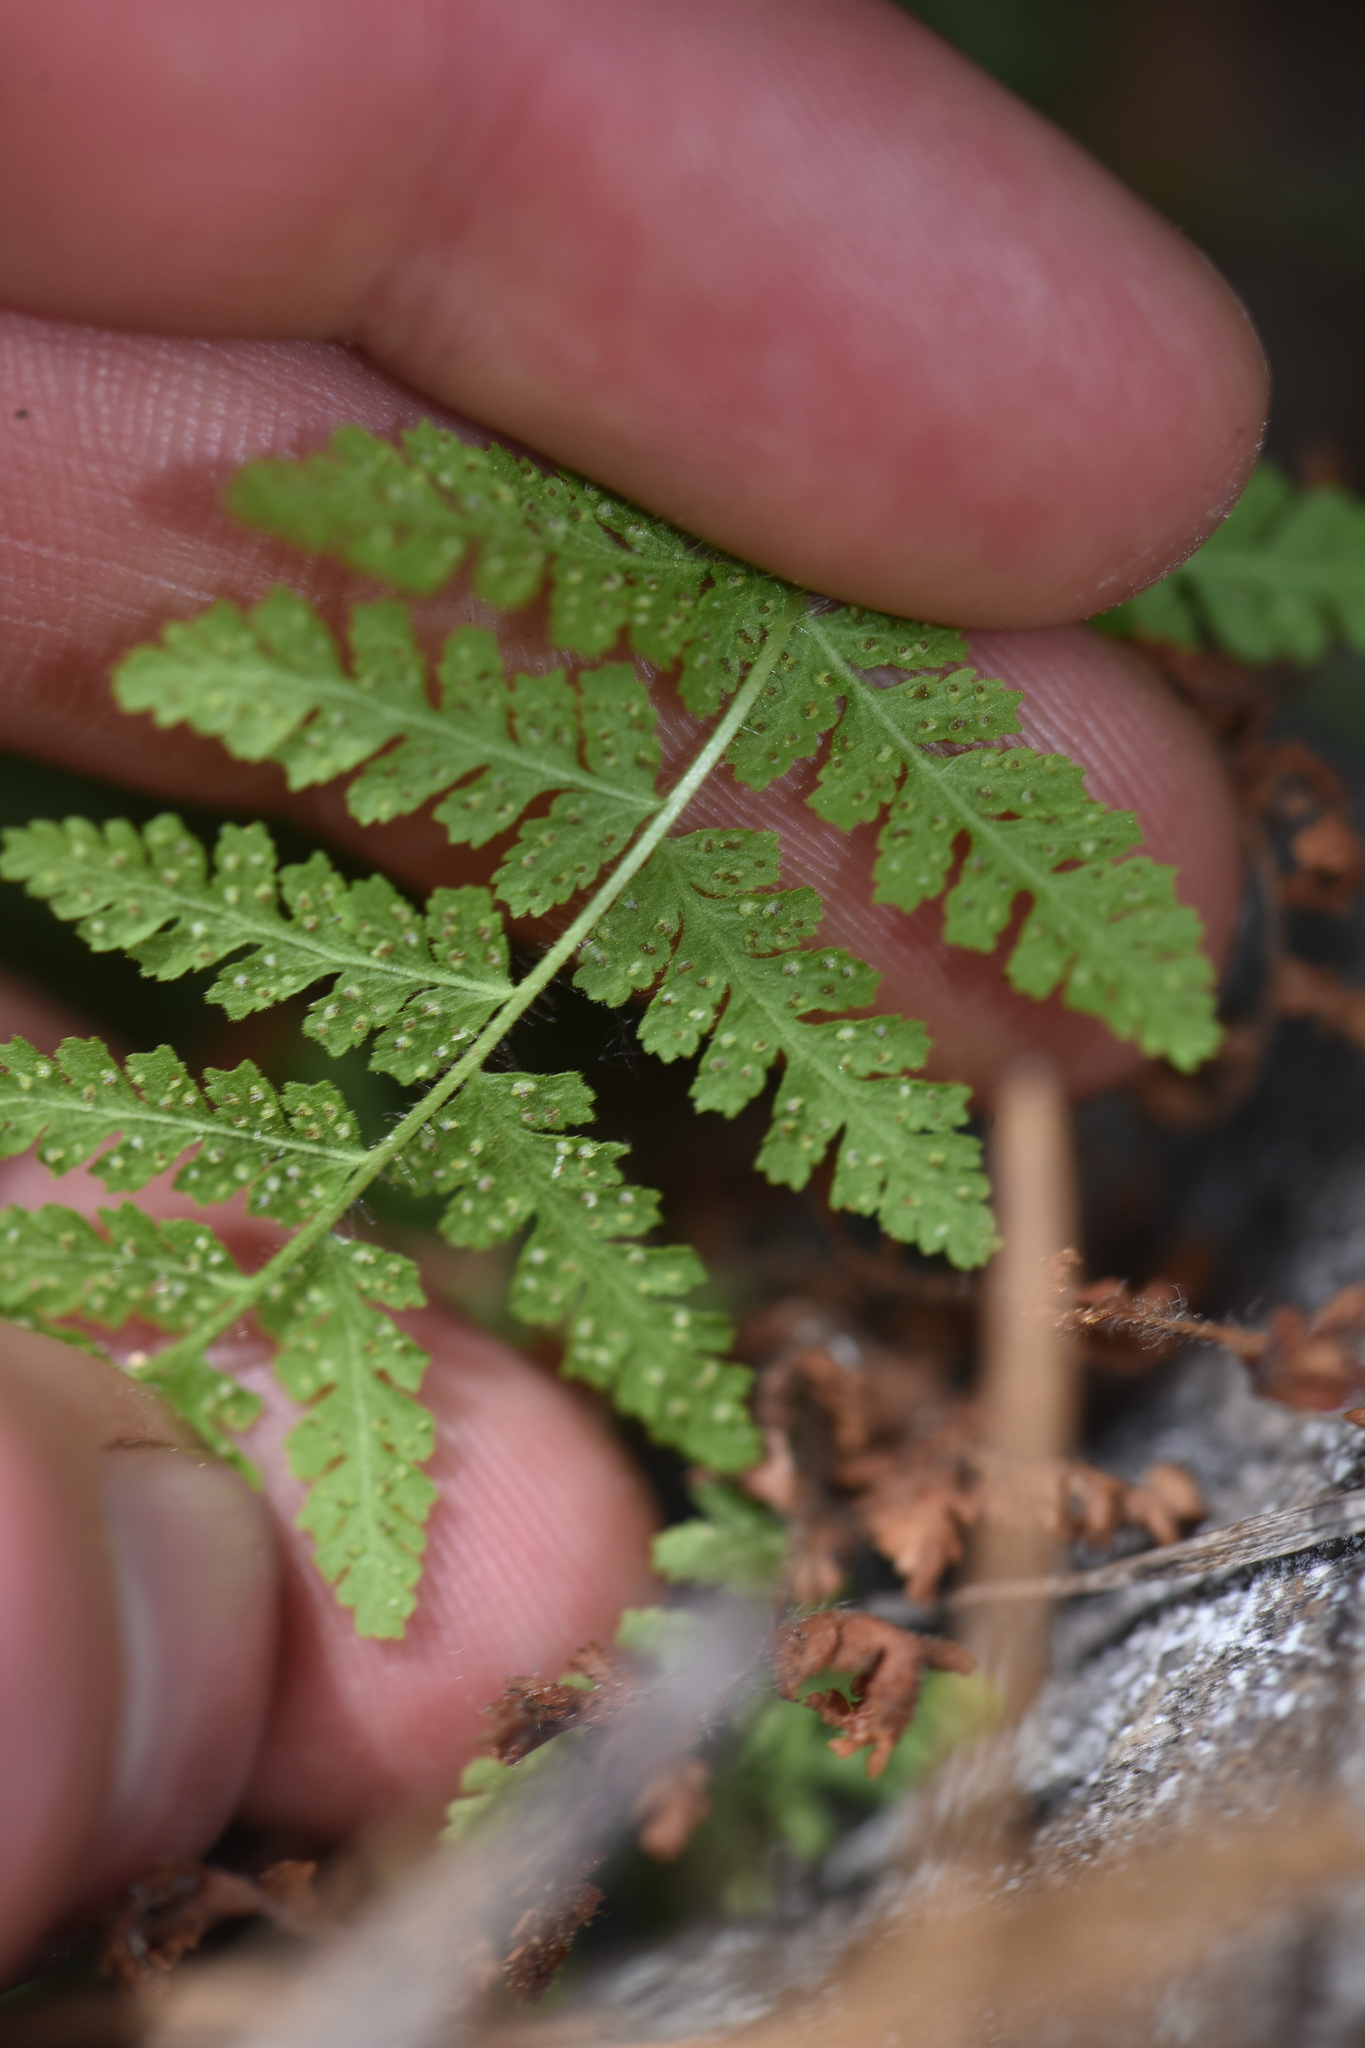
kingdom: Plantae
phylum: Tracheophyta
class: Polypodiopsida
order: Polypodiales
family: Woodsiaceae
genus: Physematium
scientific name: Physematium scopulinum
